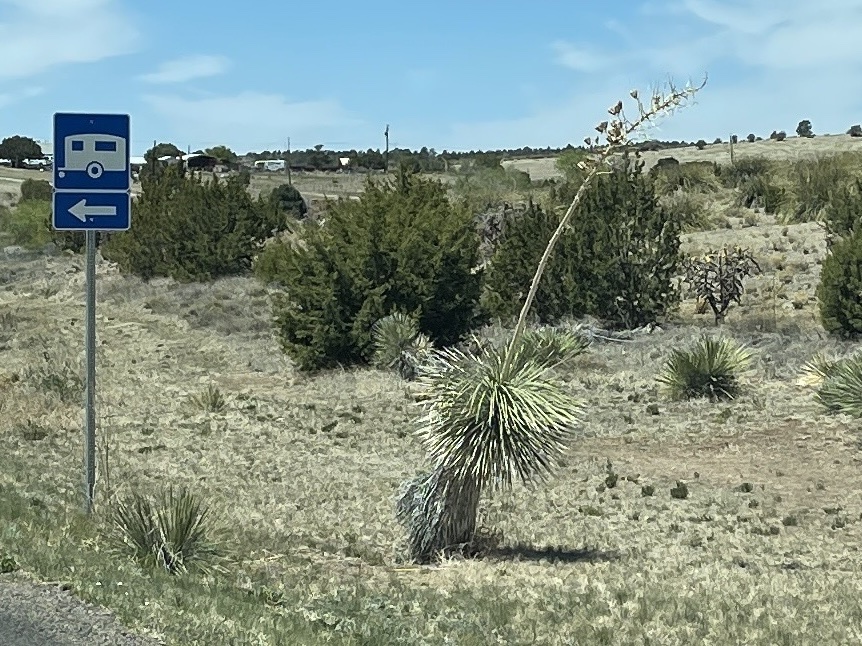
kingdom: Plantae
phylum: Tracheophyta
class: Liliopsida
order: Asparagales
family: Asparagaceae
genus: Yucca
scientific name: Yucca elata
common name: Palmella
